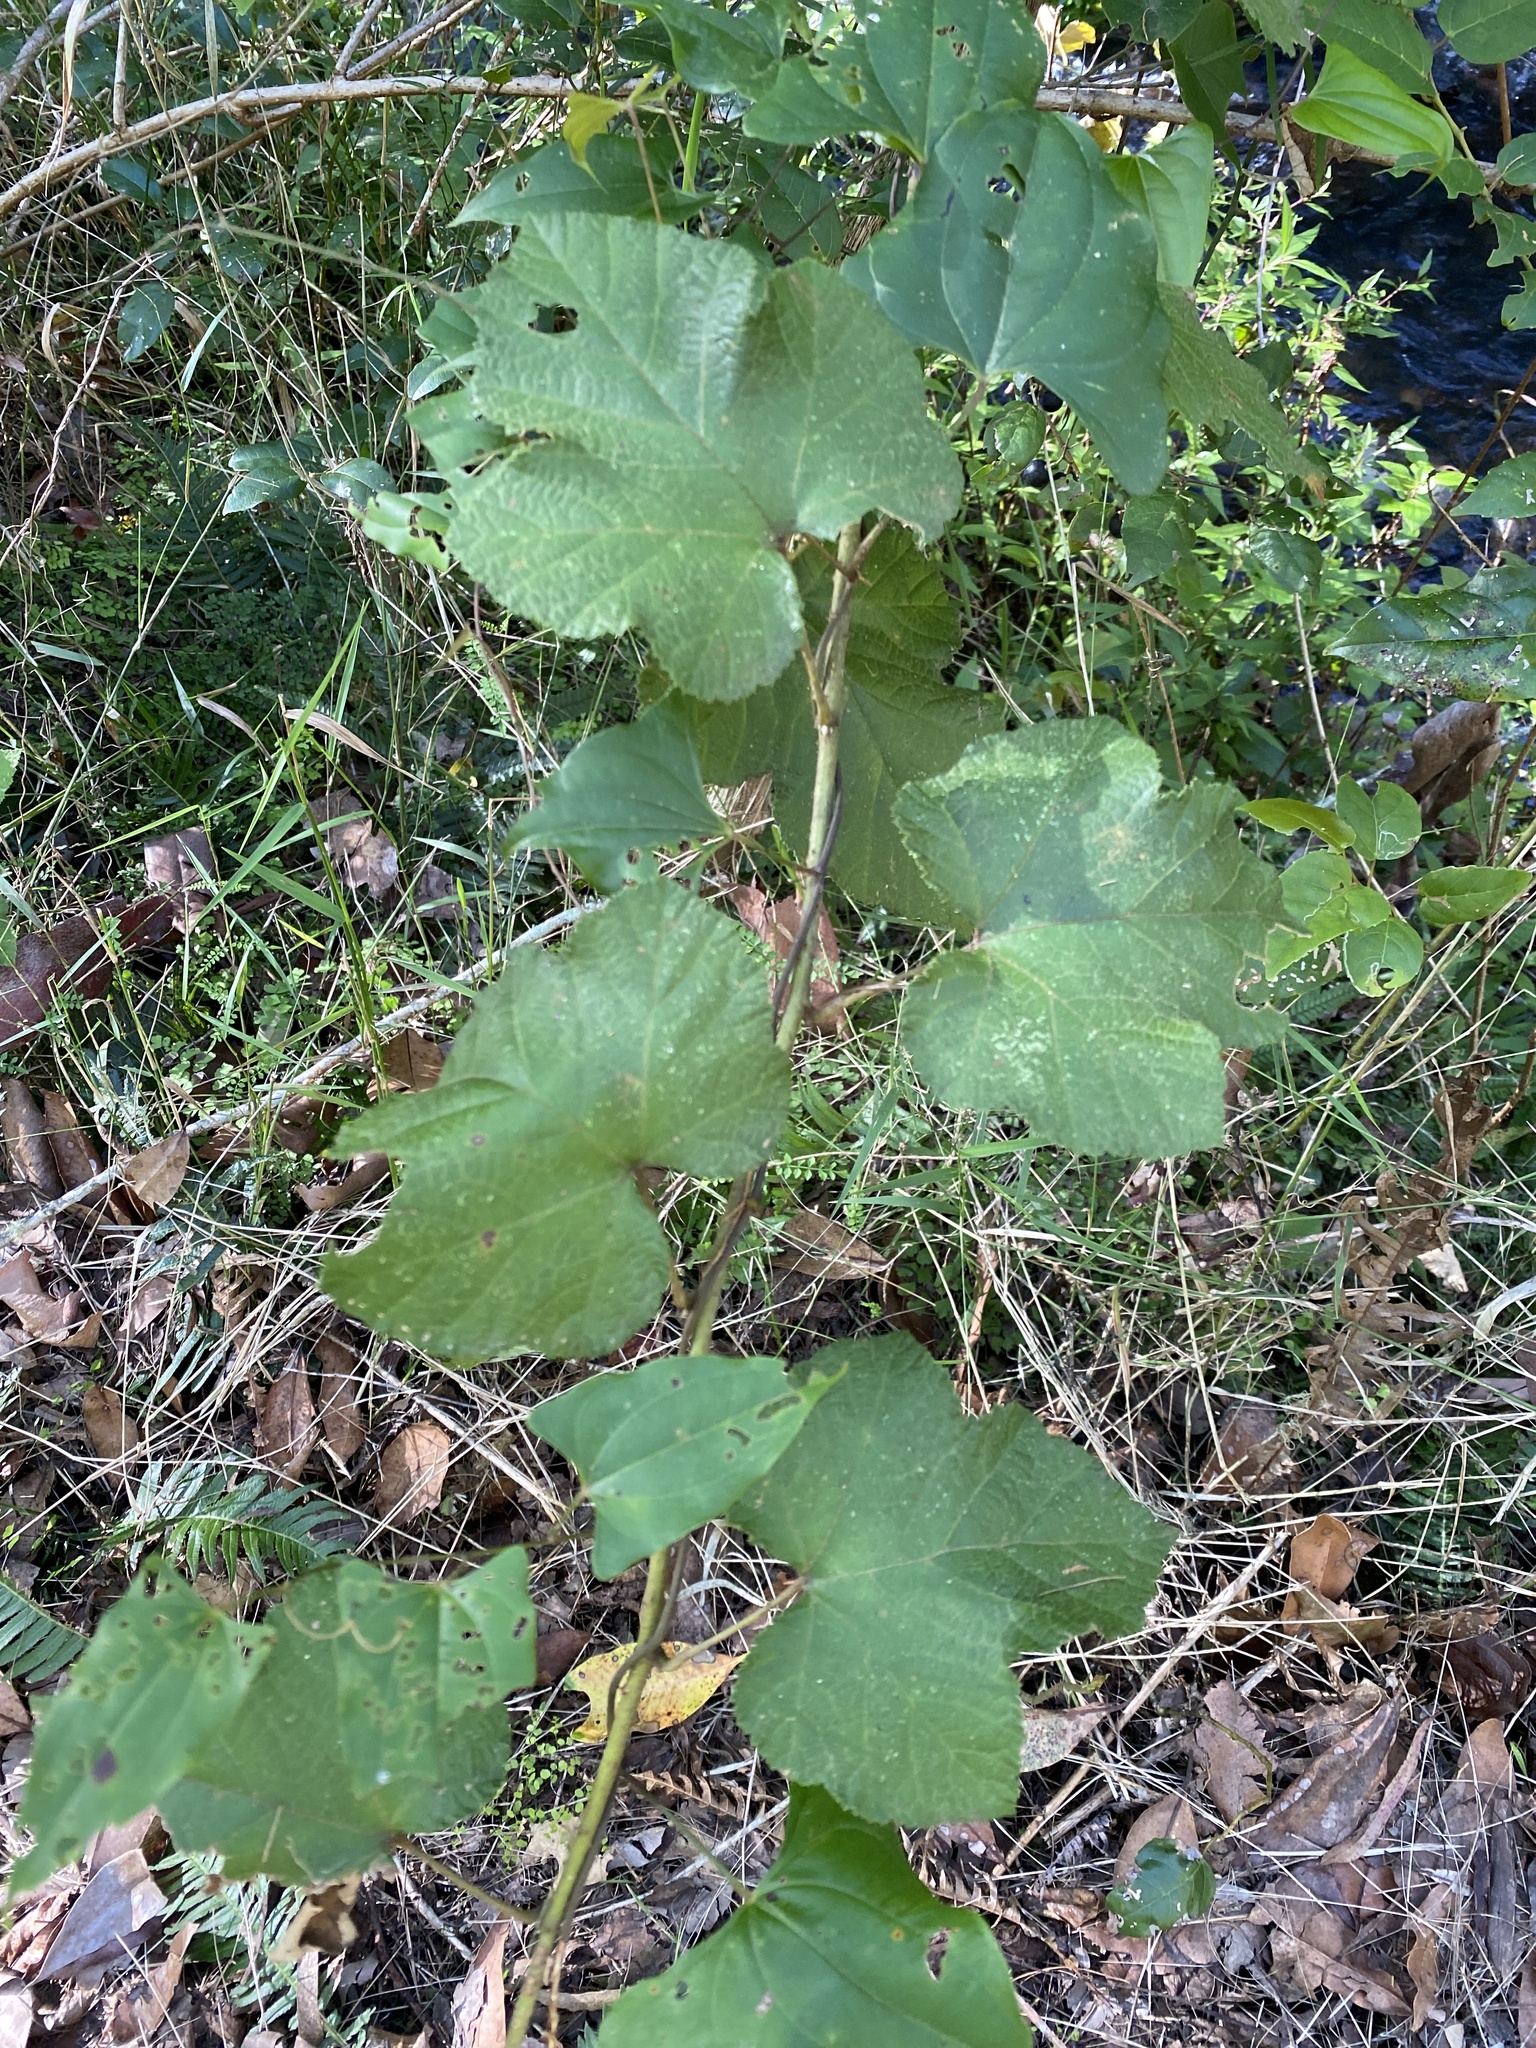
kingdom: Plantae
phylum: Tracheophyta
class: Magnoliopsida
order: Rosales
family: Rosaceae
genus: Rubus
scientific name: Rubus moluccanus
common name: Wild raspberry
